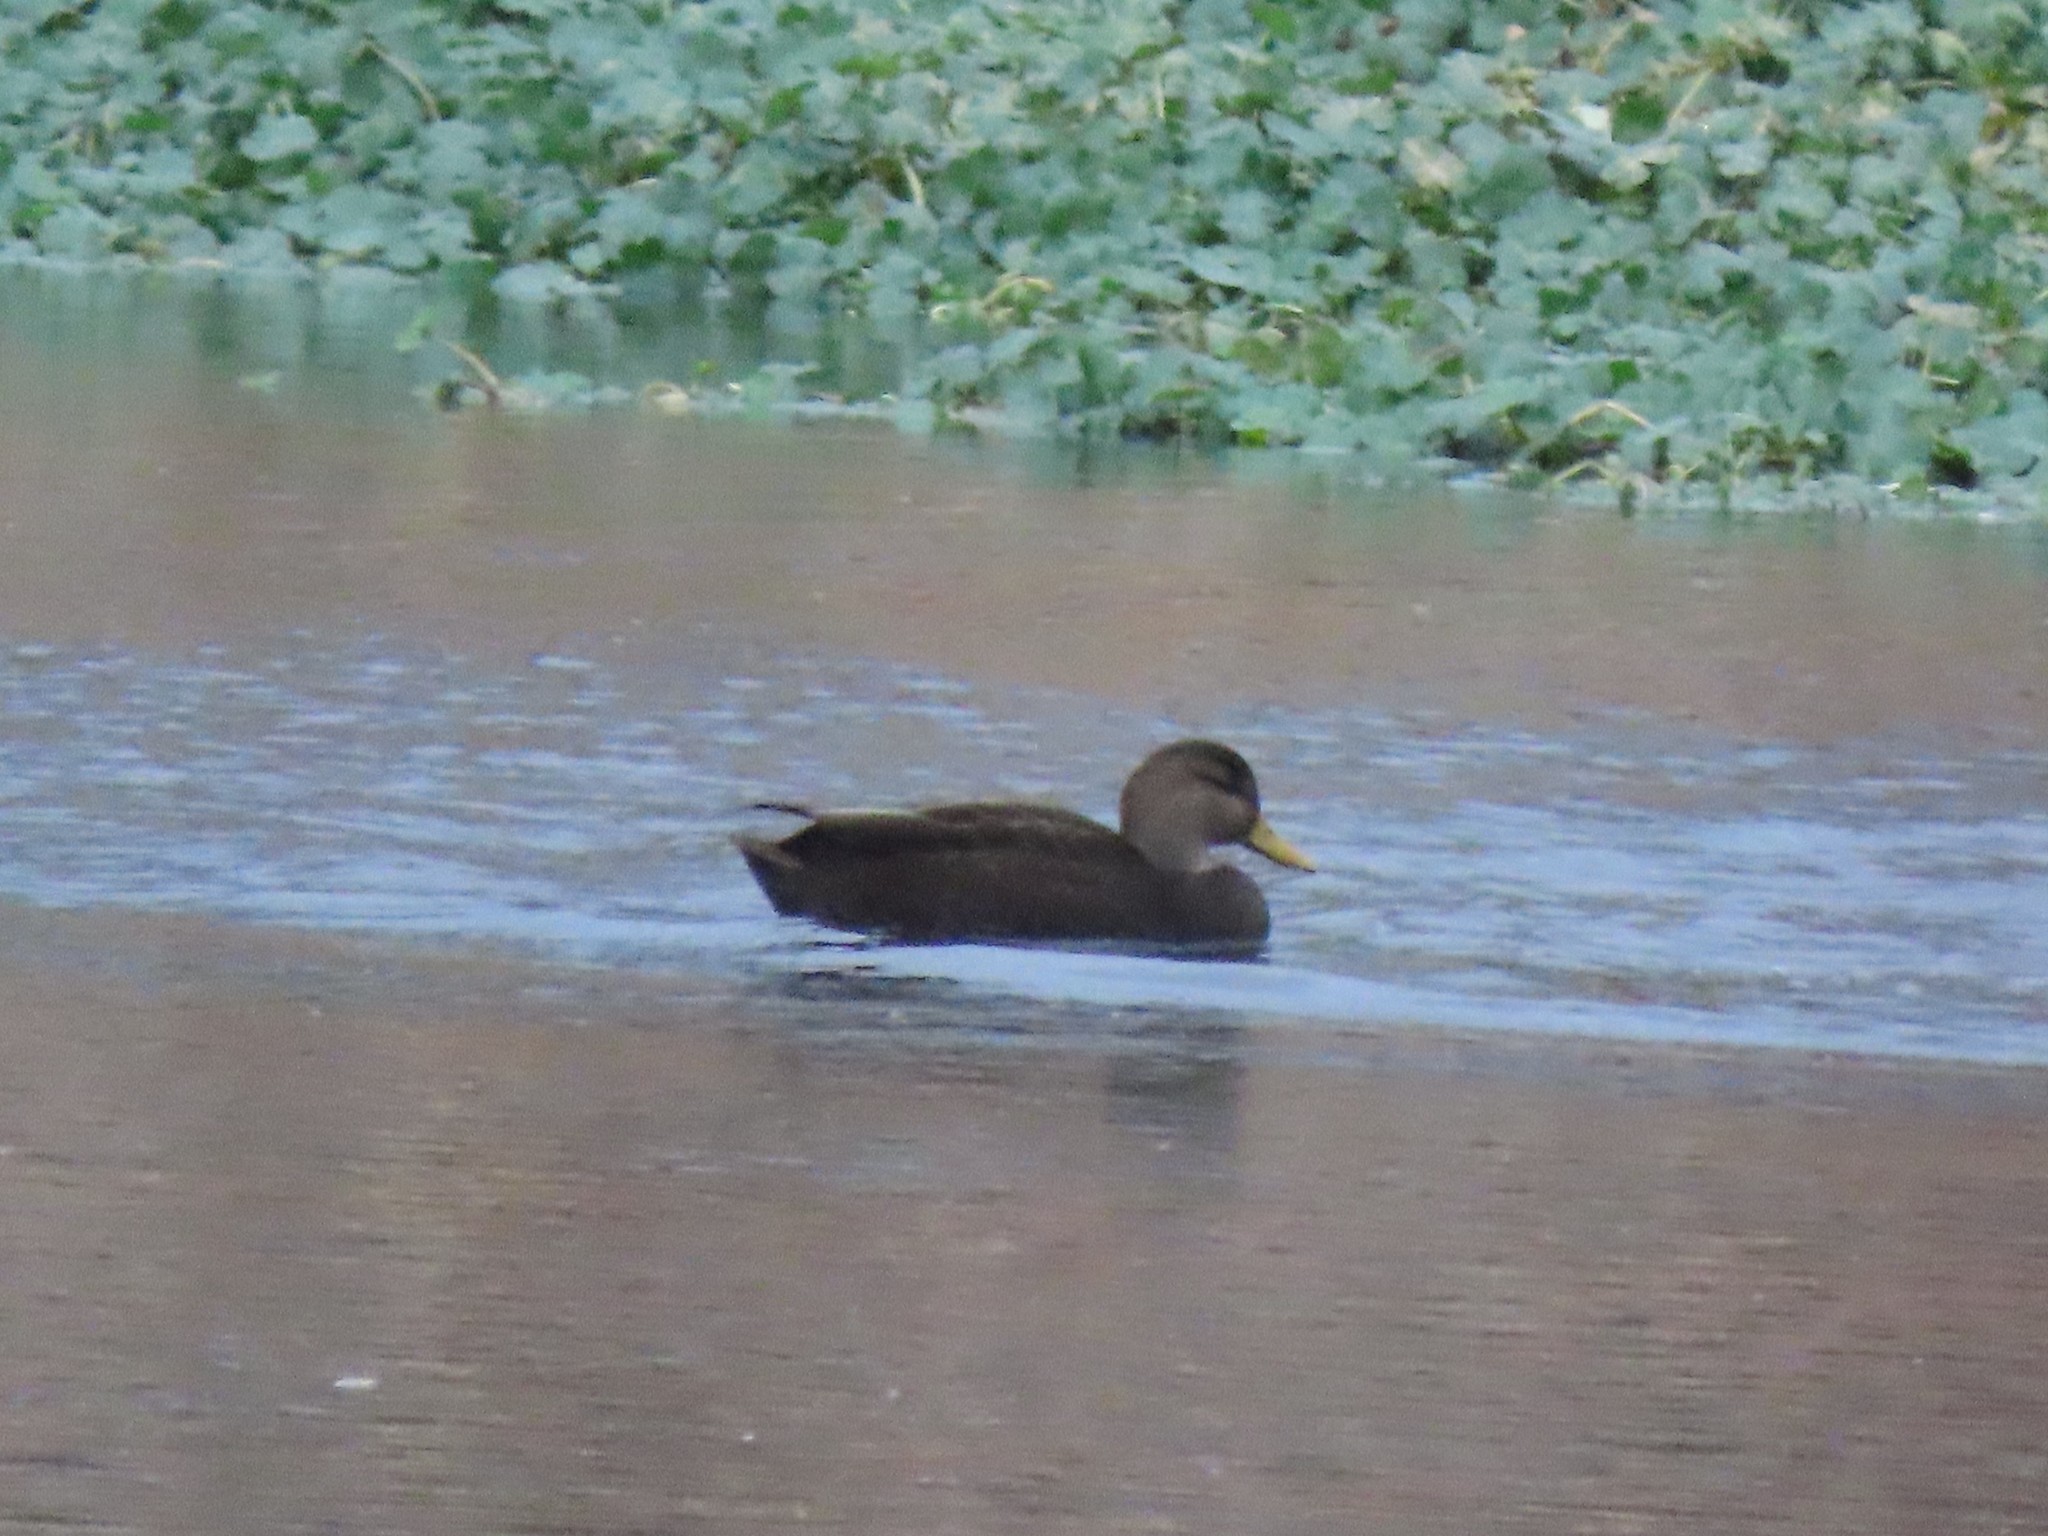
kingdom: Animalia
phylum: Chordata
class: Aves
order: Anseriformes
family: Anatidae
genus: Anas
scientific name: Anas rubripes
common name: American black duck
